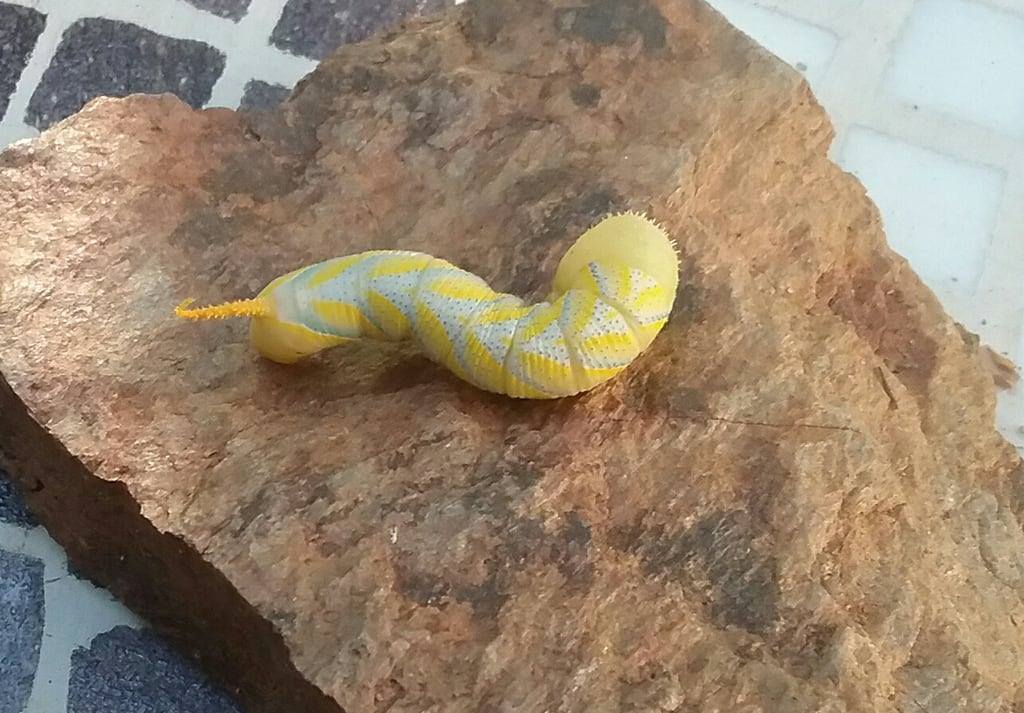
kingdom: Animalia
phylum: Arthropoda
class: Insecta
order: Lepidoptera
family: Sphingidae
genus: Acherontia
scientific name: Acherontia atropos
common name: Death's-head hawk moth
